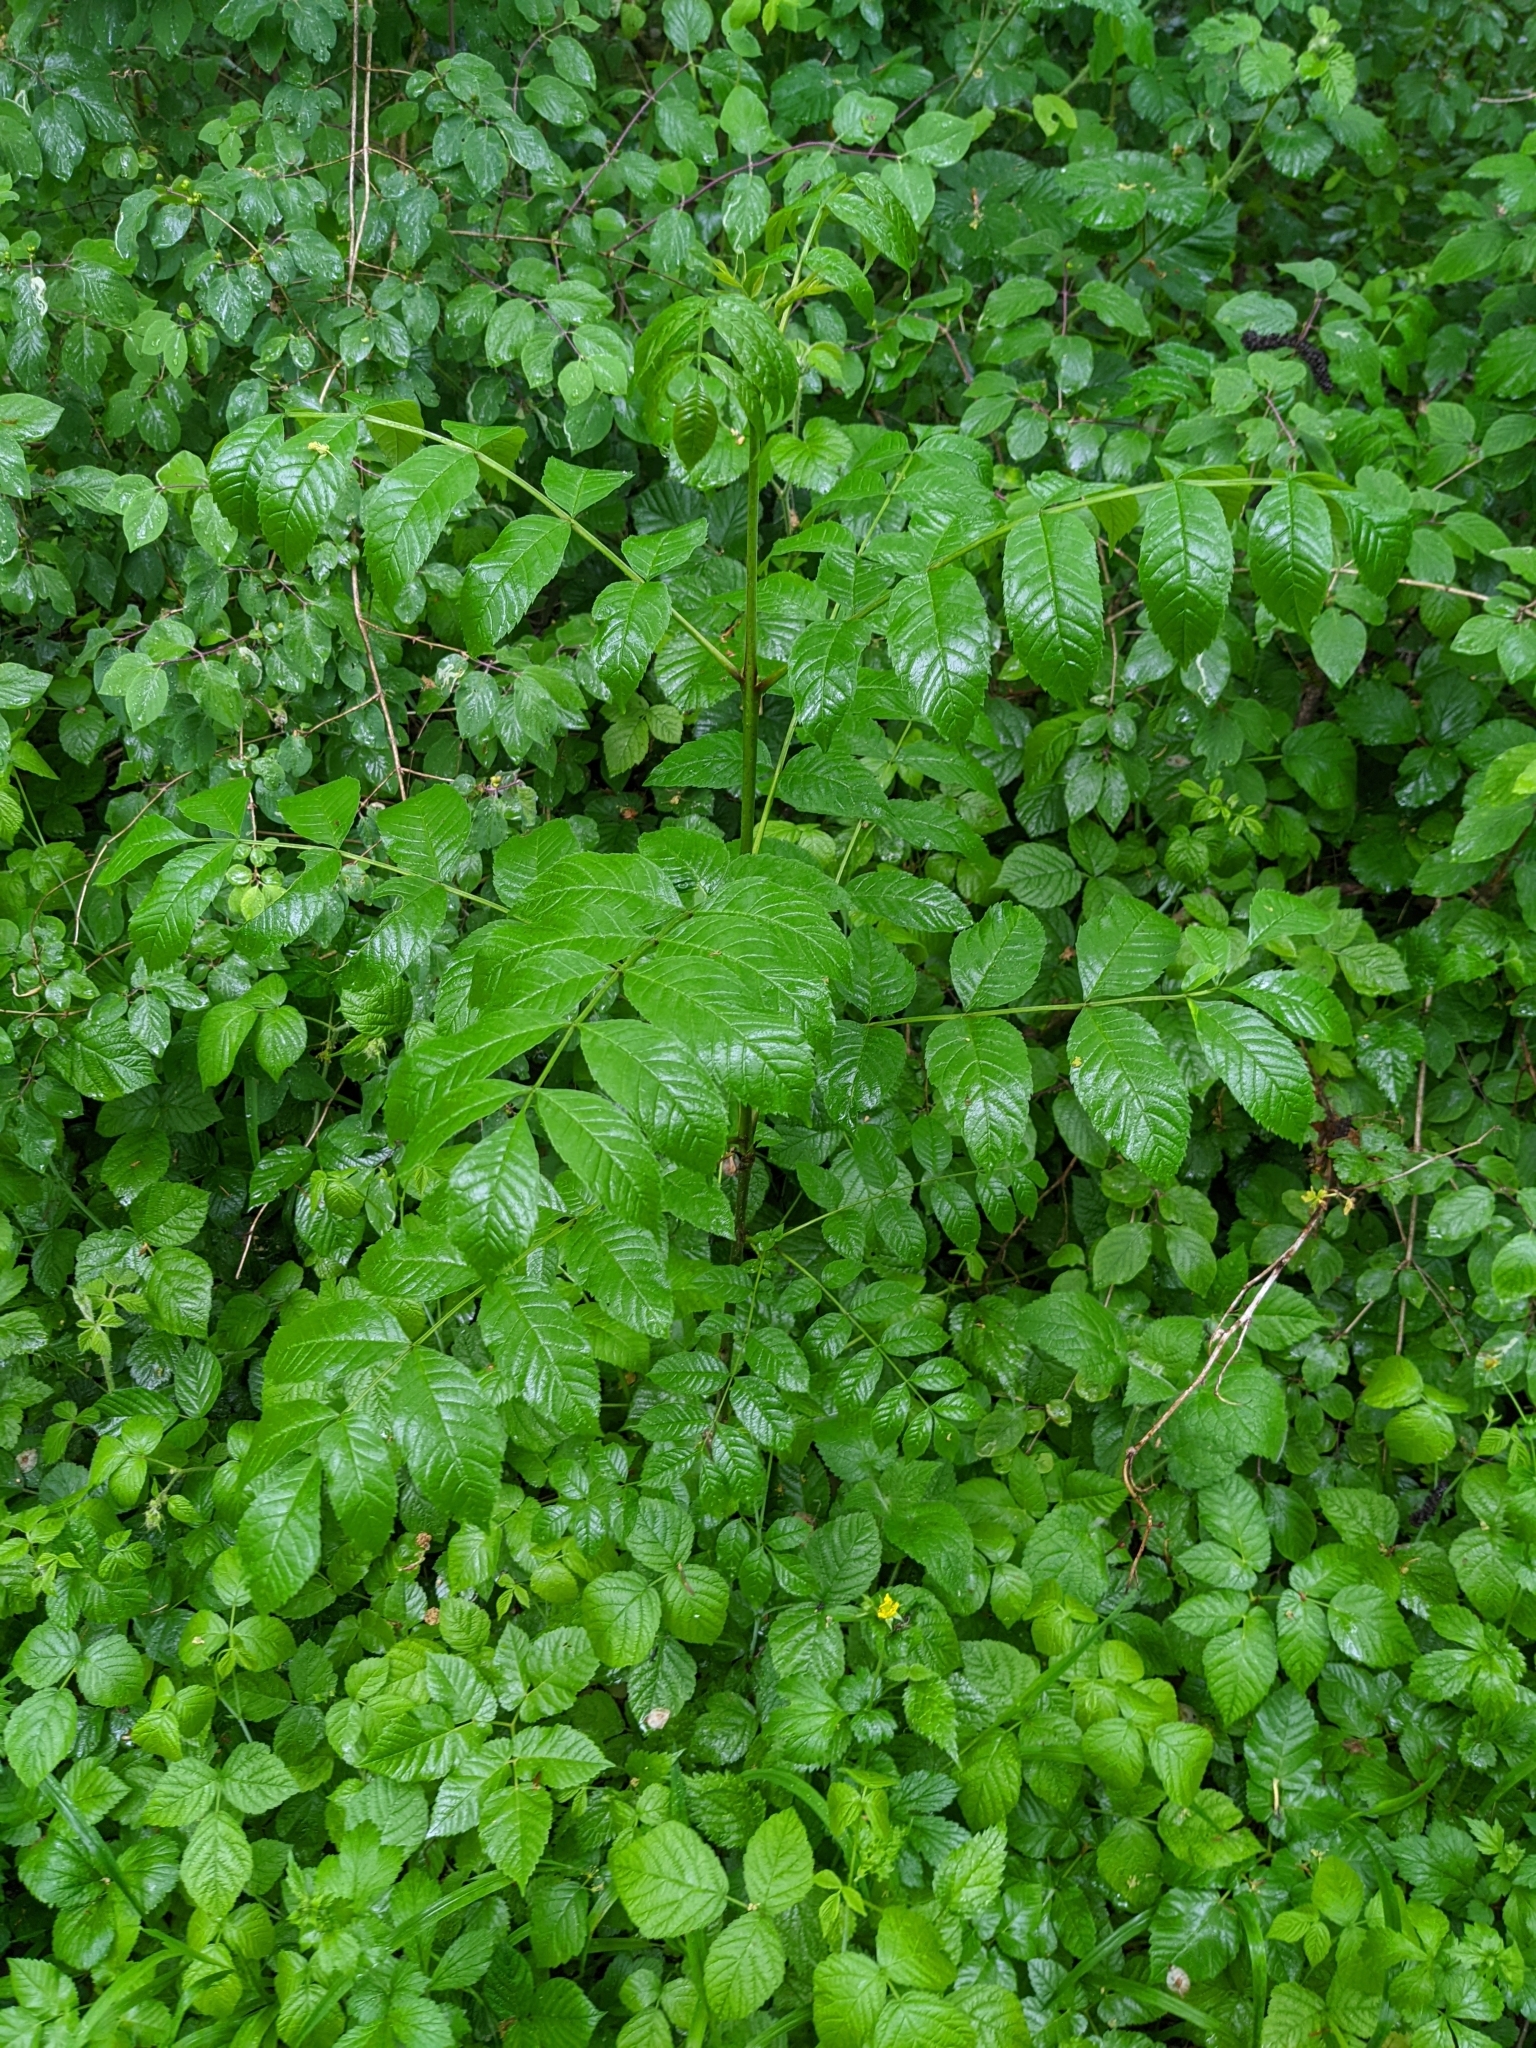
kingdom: Plantae
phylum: Tracheophyta
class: Magnoliopsida
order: Lamiales
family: Oleaceae
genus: Fraxinus
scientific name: Fraxinus excelsior
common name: European ash
